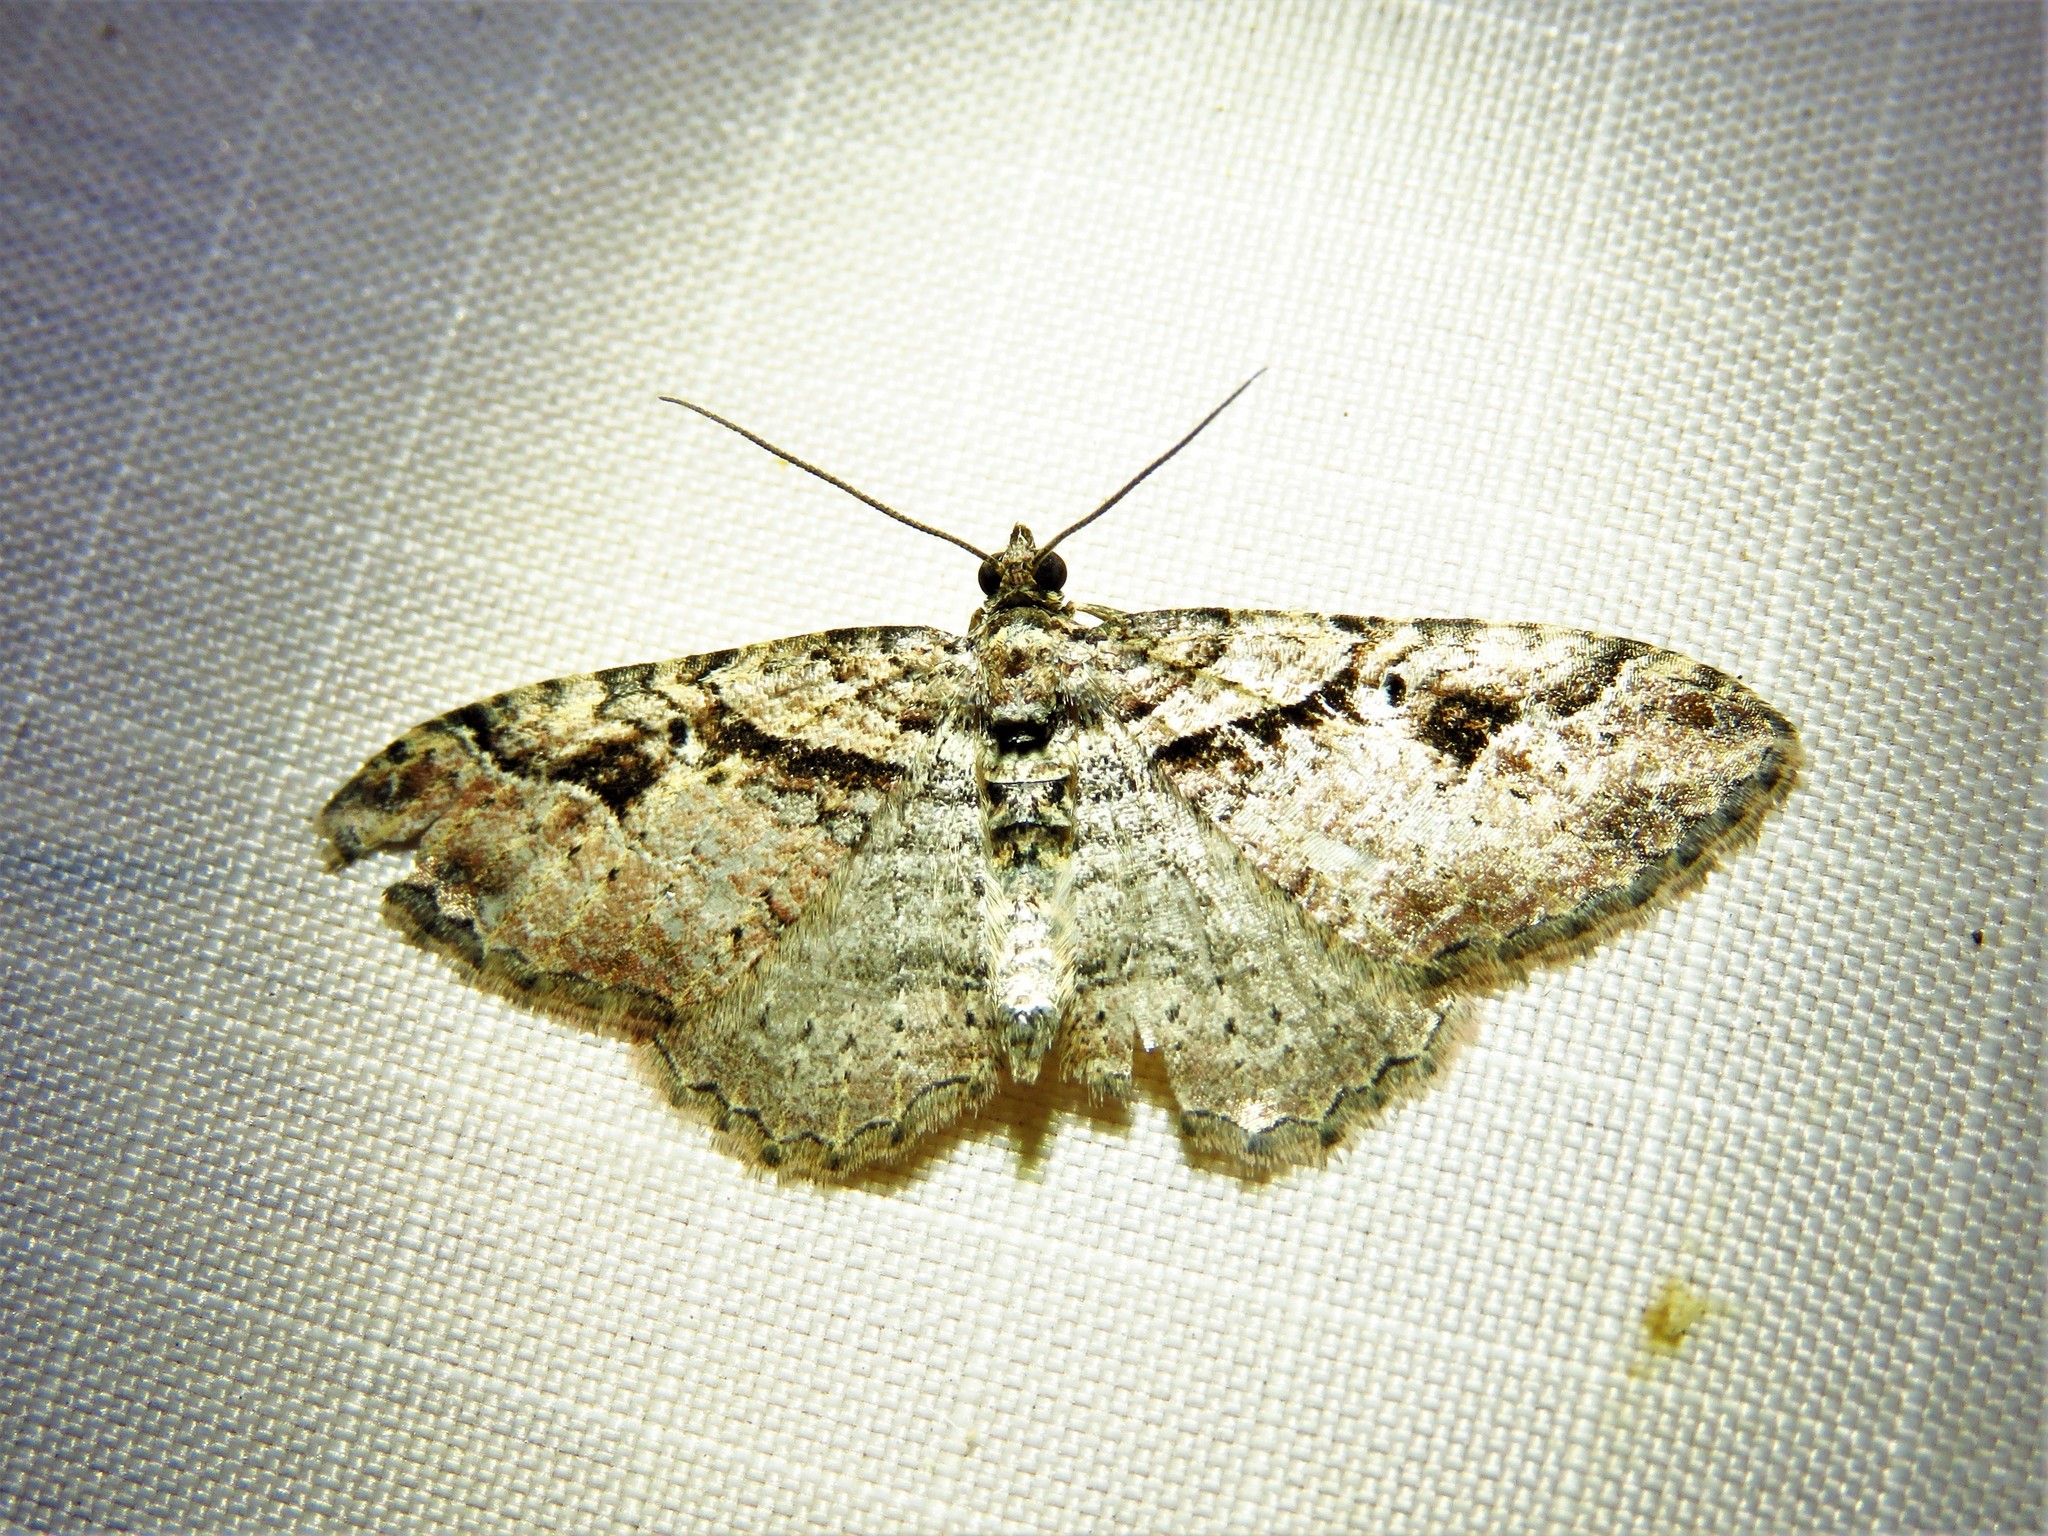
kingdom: Animalia
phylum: Arthropoda
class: Insecta
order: Lepidoptera
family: Geometridae
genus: Costaconvexa
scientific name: Costaconvexa centrostrigaria
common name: Bent-line carpet
